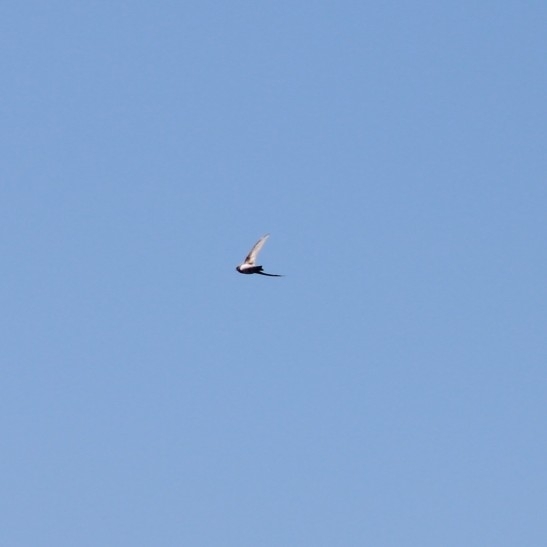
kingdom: Animalia
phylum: Chordata
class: Aves
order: Passeriformes
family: Hirundinidae
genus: Riparia
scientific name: Riparia riparia
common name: Sand martin
